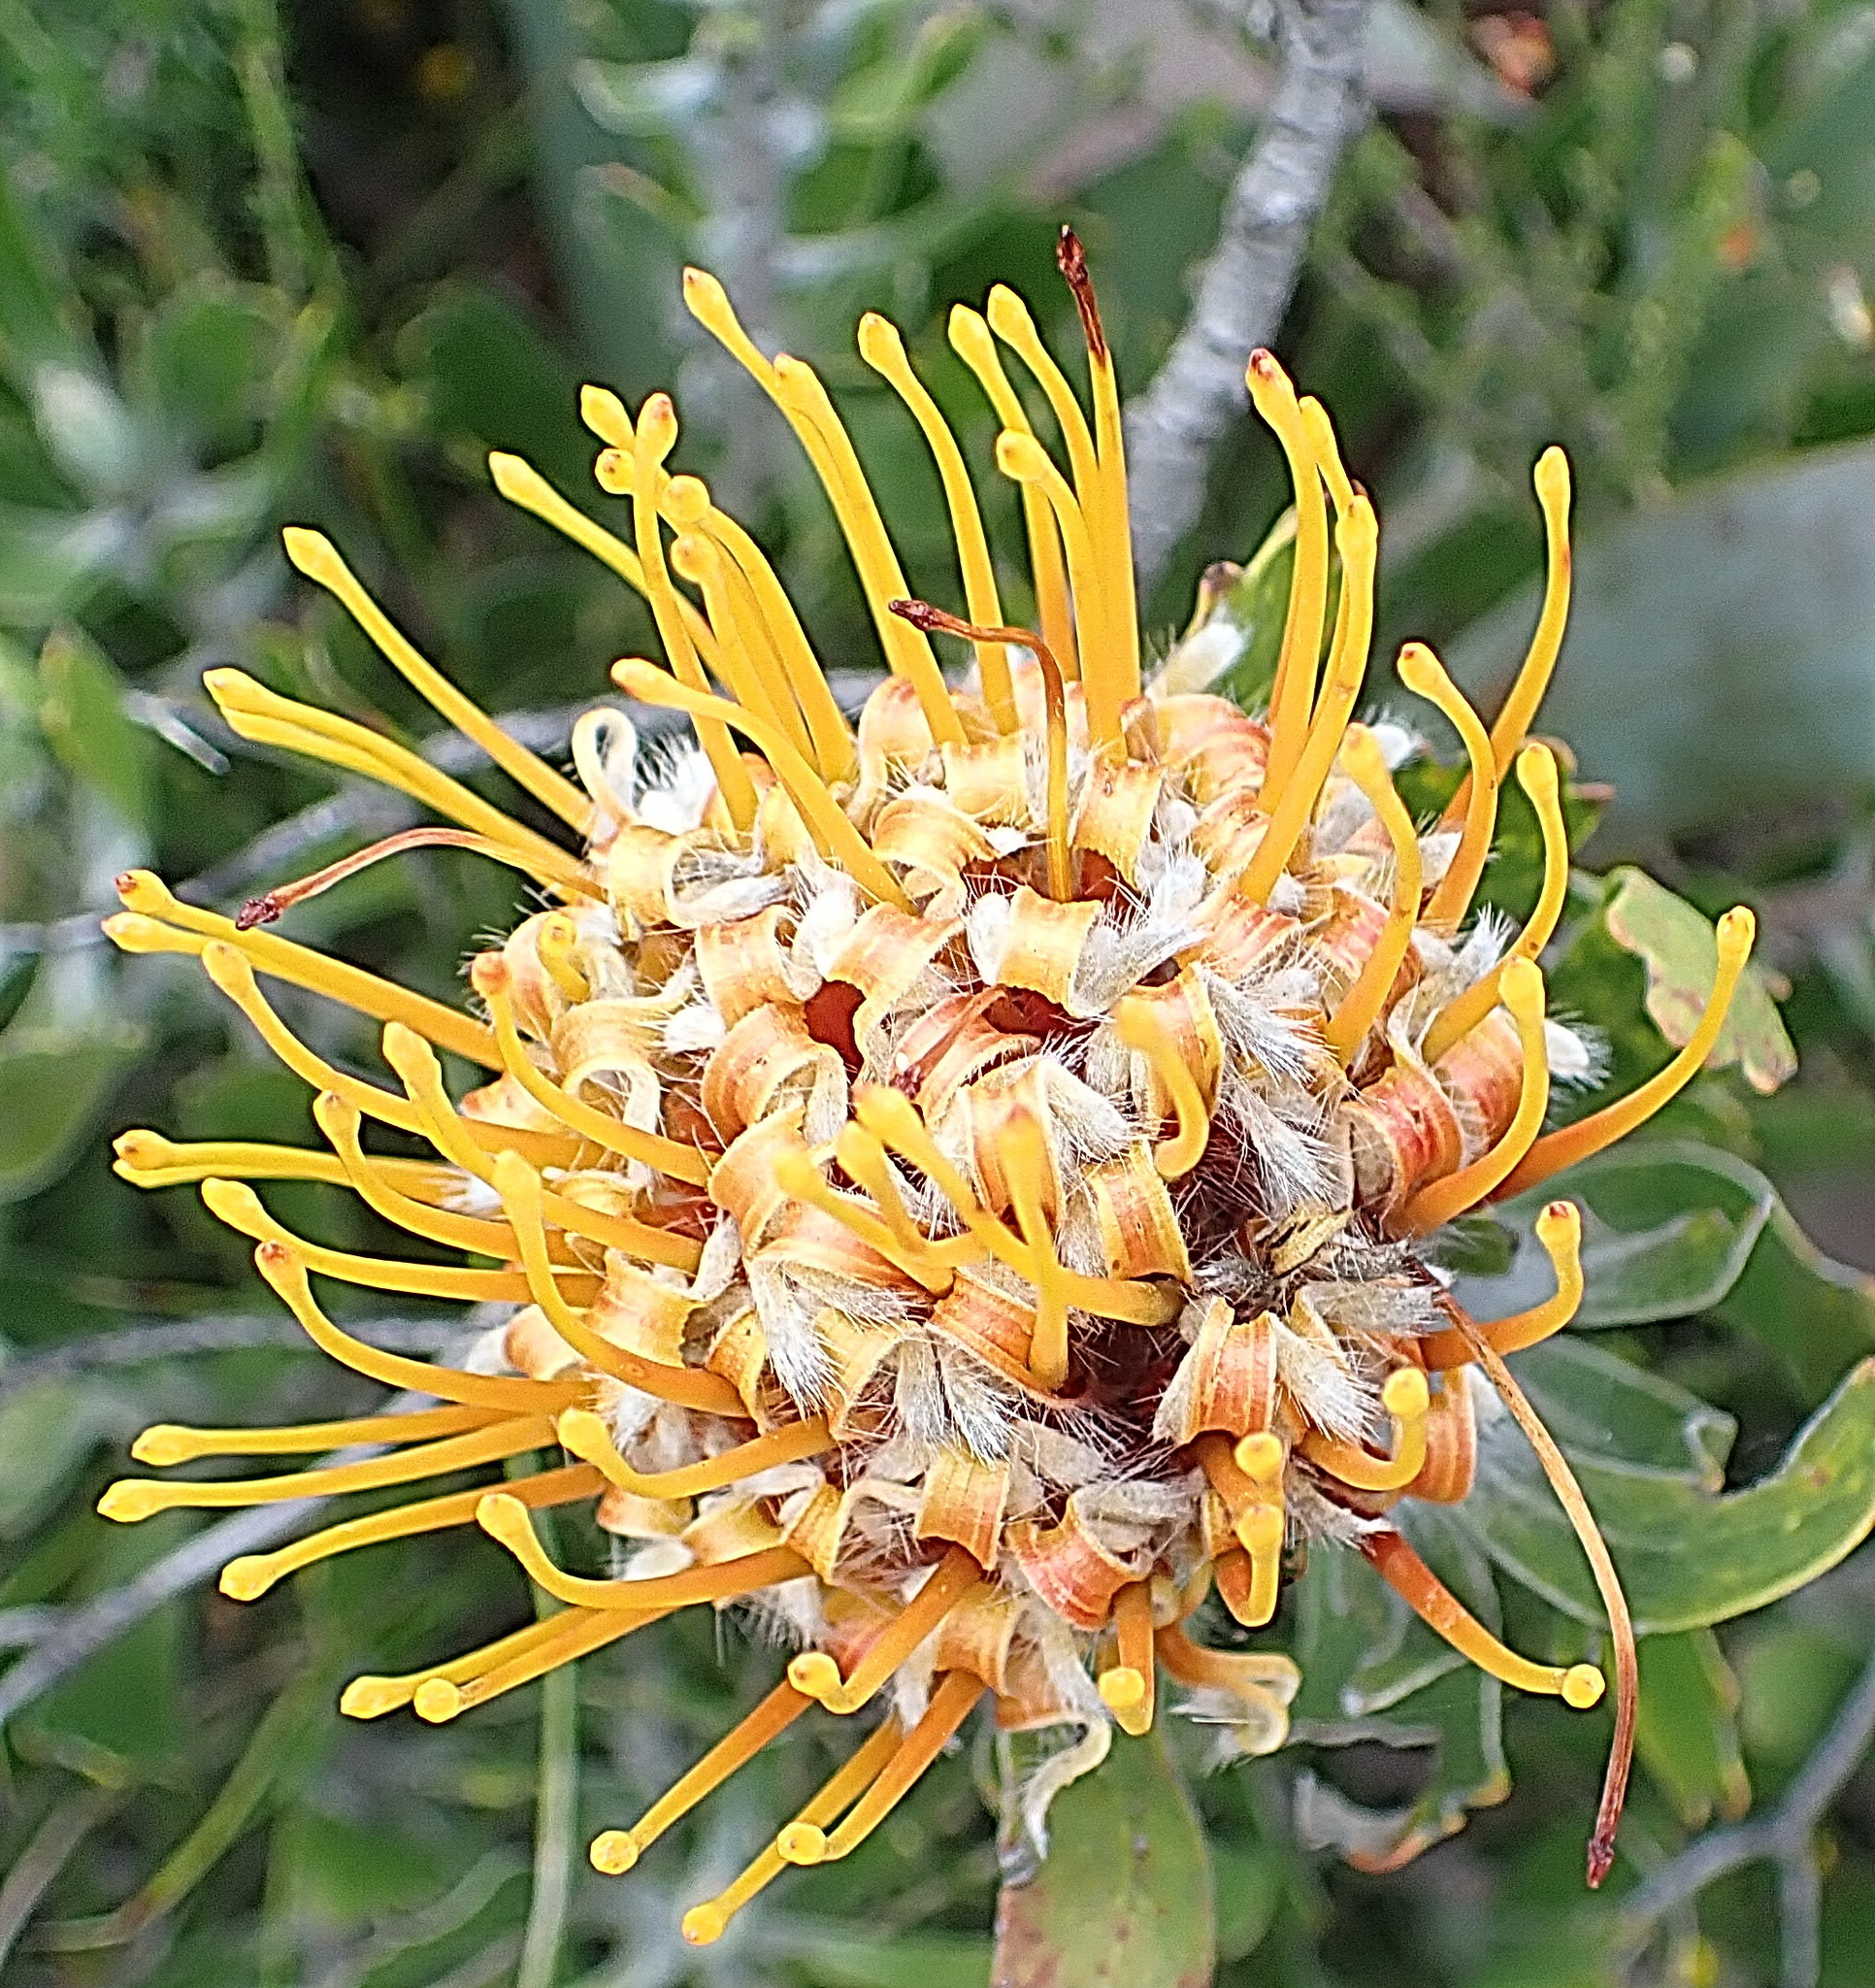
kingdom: Plantae
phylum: Tracheophyta
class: Magnoliopsida
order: Proteales
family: Proteaceae
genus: Leucospermum
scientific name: Leucospermum cuneiforme
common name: Common pincushion
